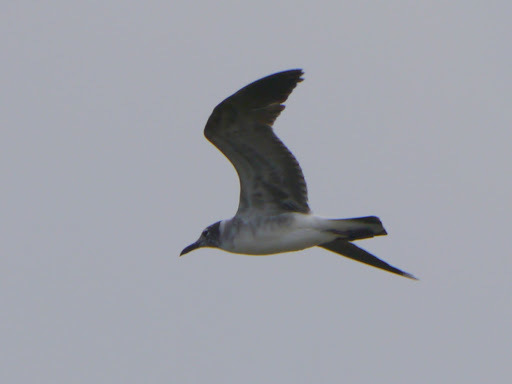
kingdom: Animalia
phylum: Chordata
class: Aves
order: Charadriiformes
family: Laridae
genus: Leucophaeus
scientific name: Leucophaeus atricilla
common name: Laughing gull
